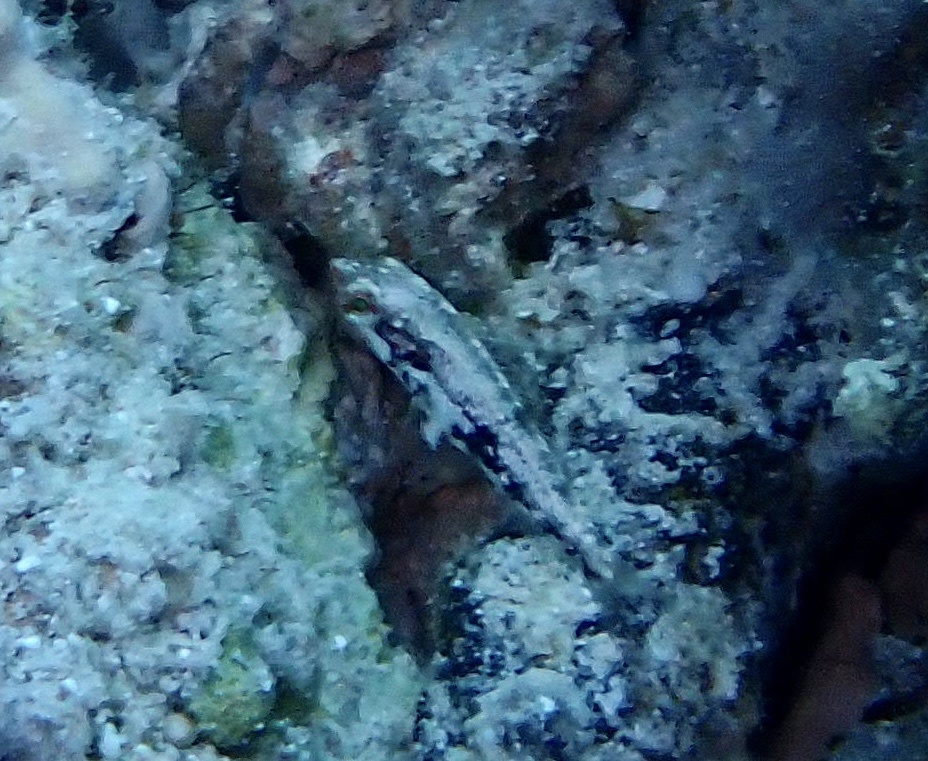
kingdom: Animalia
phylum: Chordata
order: Perciformes
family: Labridae
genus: Halichoeres
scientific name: Halichoeres nebulosus
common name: Clouded wrasse
